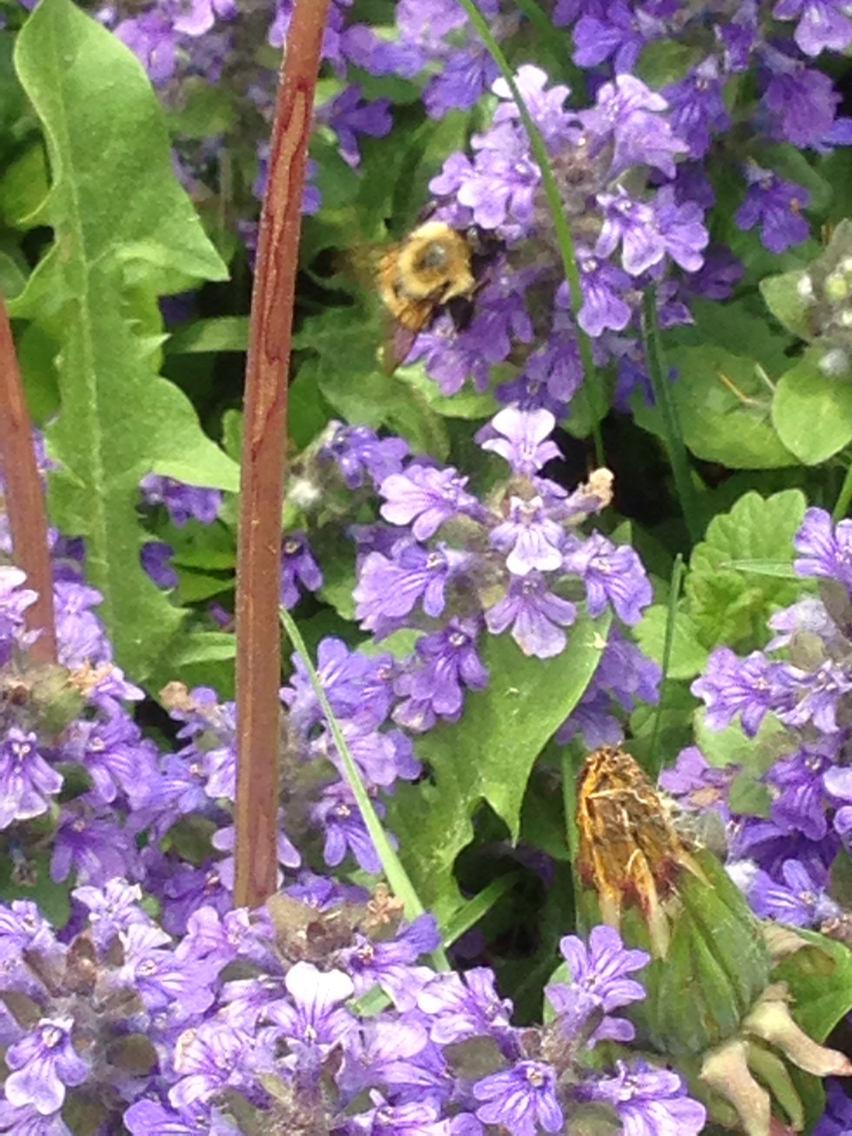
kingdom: Animalia
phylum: Arthropoda
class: Insecta
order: Hymenoptera
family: Apidae
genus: Pyrobombus
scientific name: Pyrobombus
